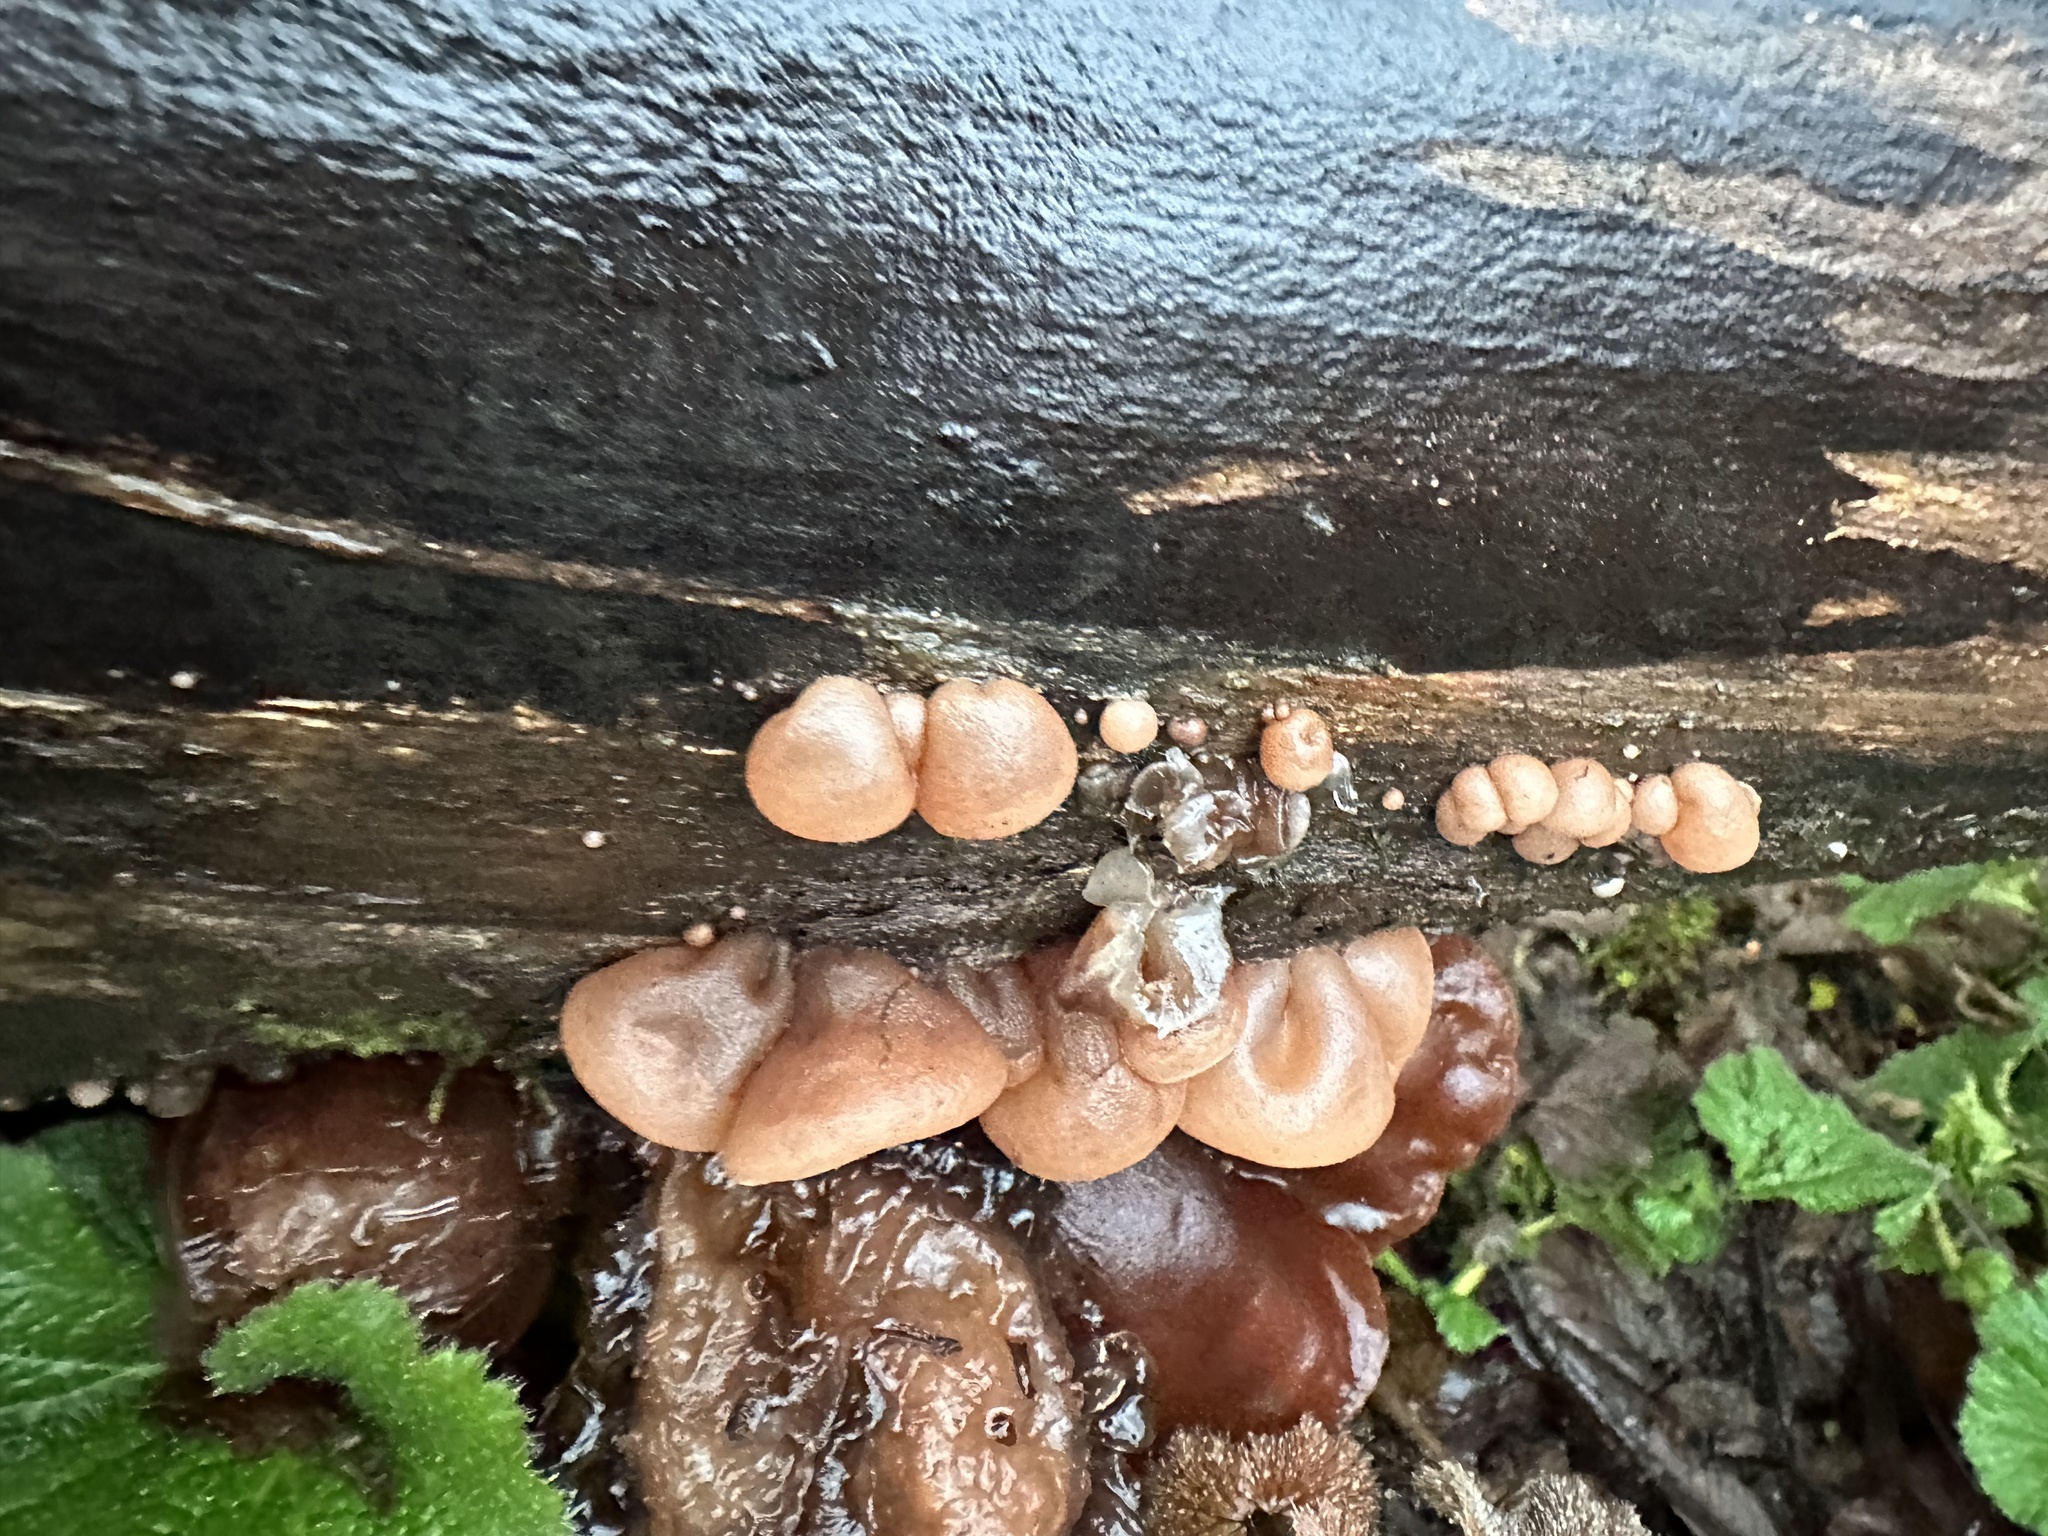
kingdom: Fungi
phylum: Basidiomycota
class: Agaricomycetes
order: Auriculariales
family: Auriculariaceae
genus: Auricularia
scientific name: Auricularia auricula-judae
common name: Jelly ear
